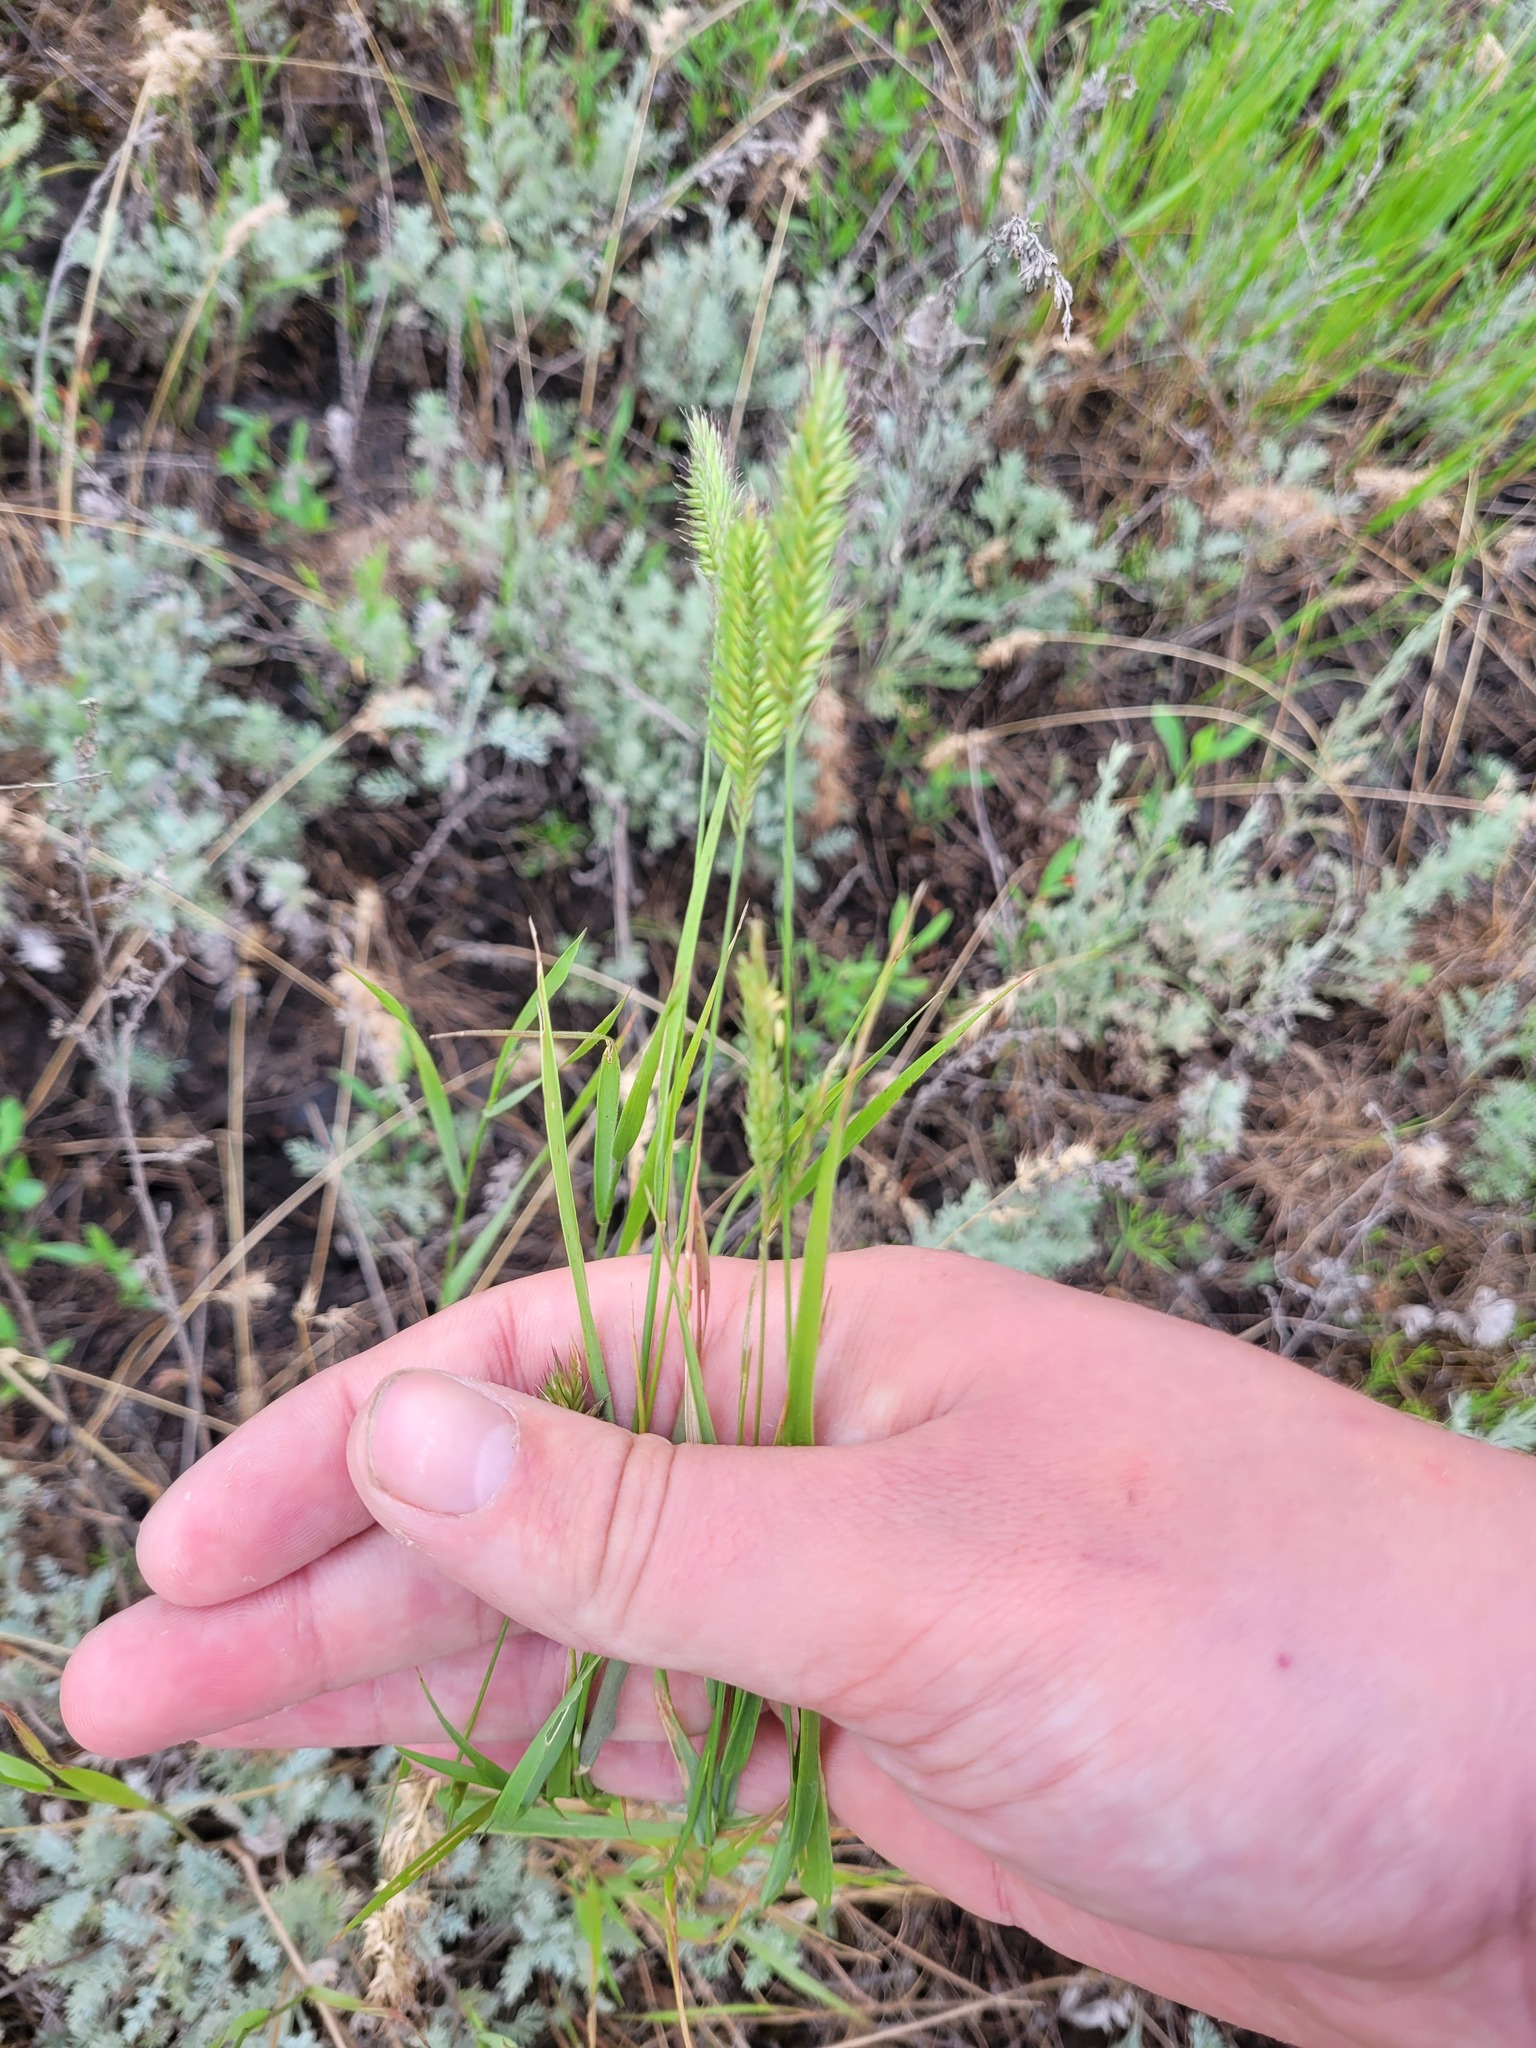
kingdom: Plantae
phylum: Tracheophyta
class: Liliopsida
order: Poales
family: Poaceae
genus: Agropyron
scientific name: Agropyron cristatum
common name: Crested wheatgrass
